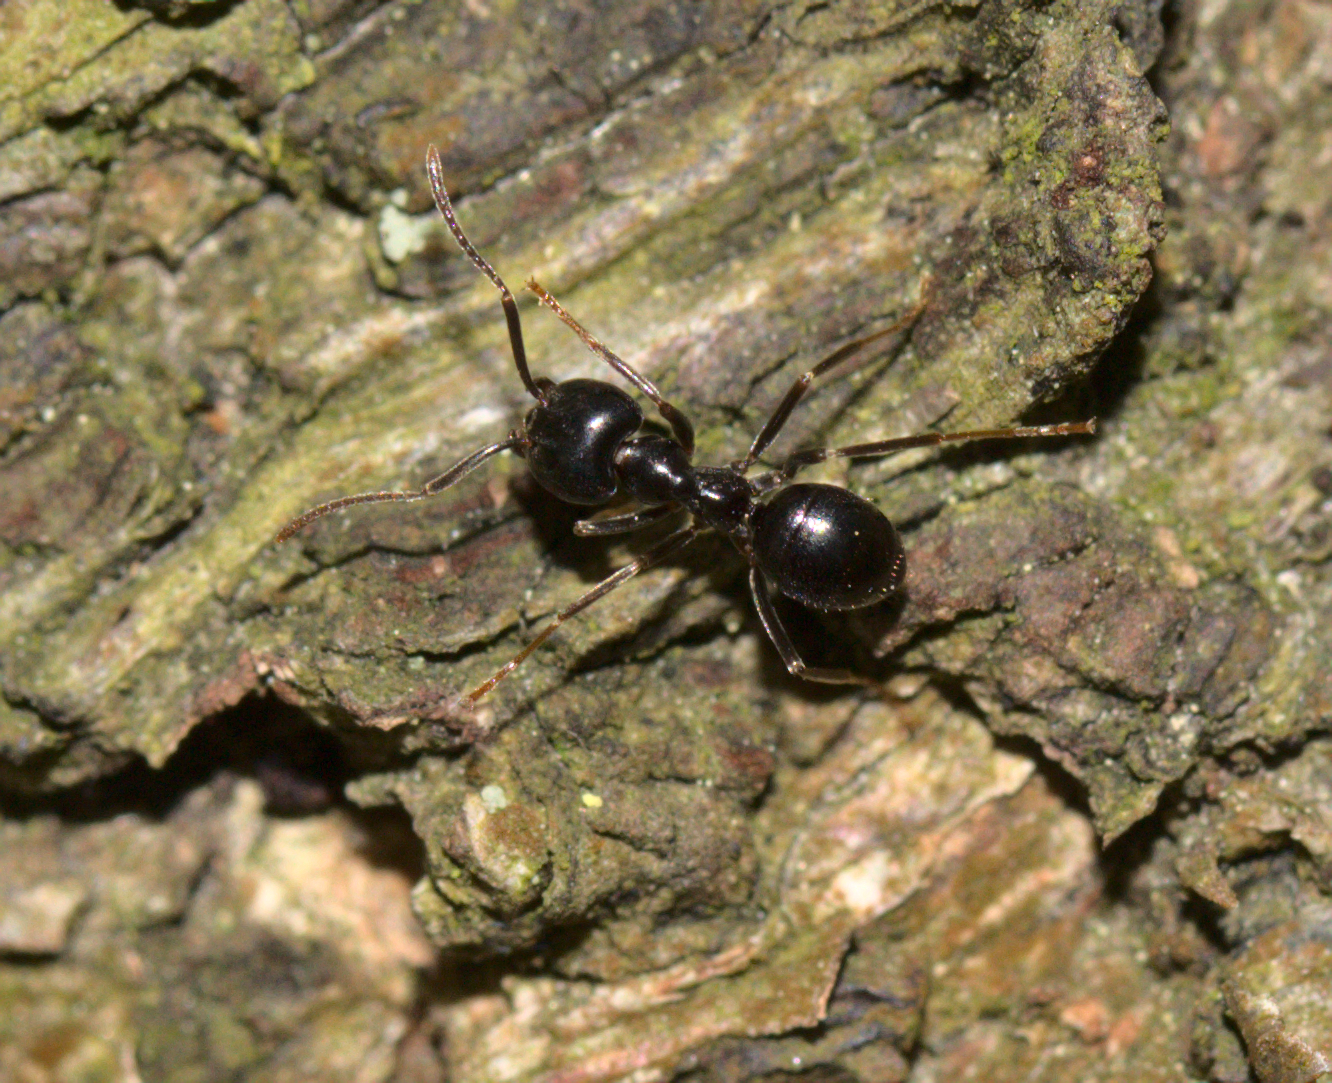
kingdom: Animalia
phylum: Arthropoda
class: Insecta
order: Hymenoptera
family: Formicidae
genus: Lasius
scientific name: Lasius fuliginosus
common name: Jet ant
